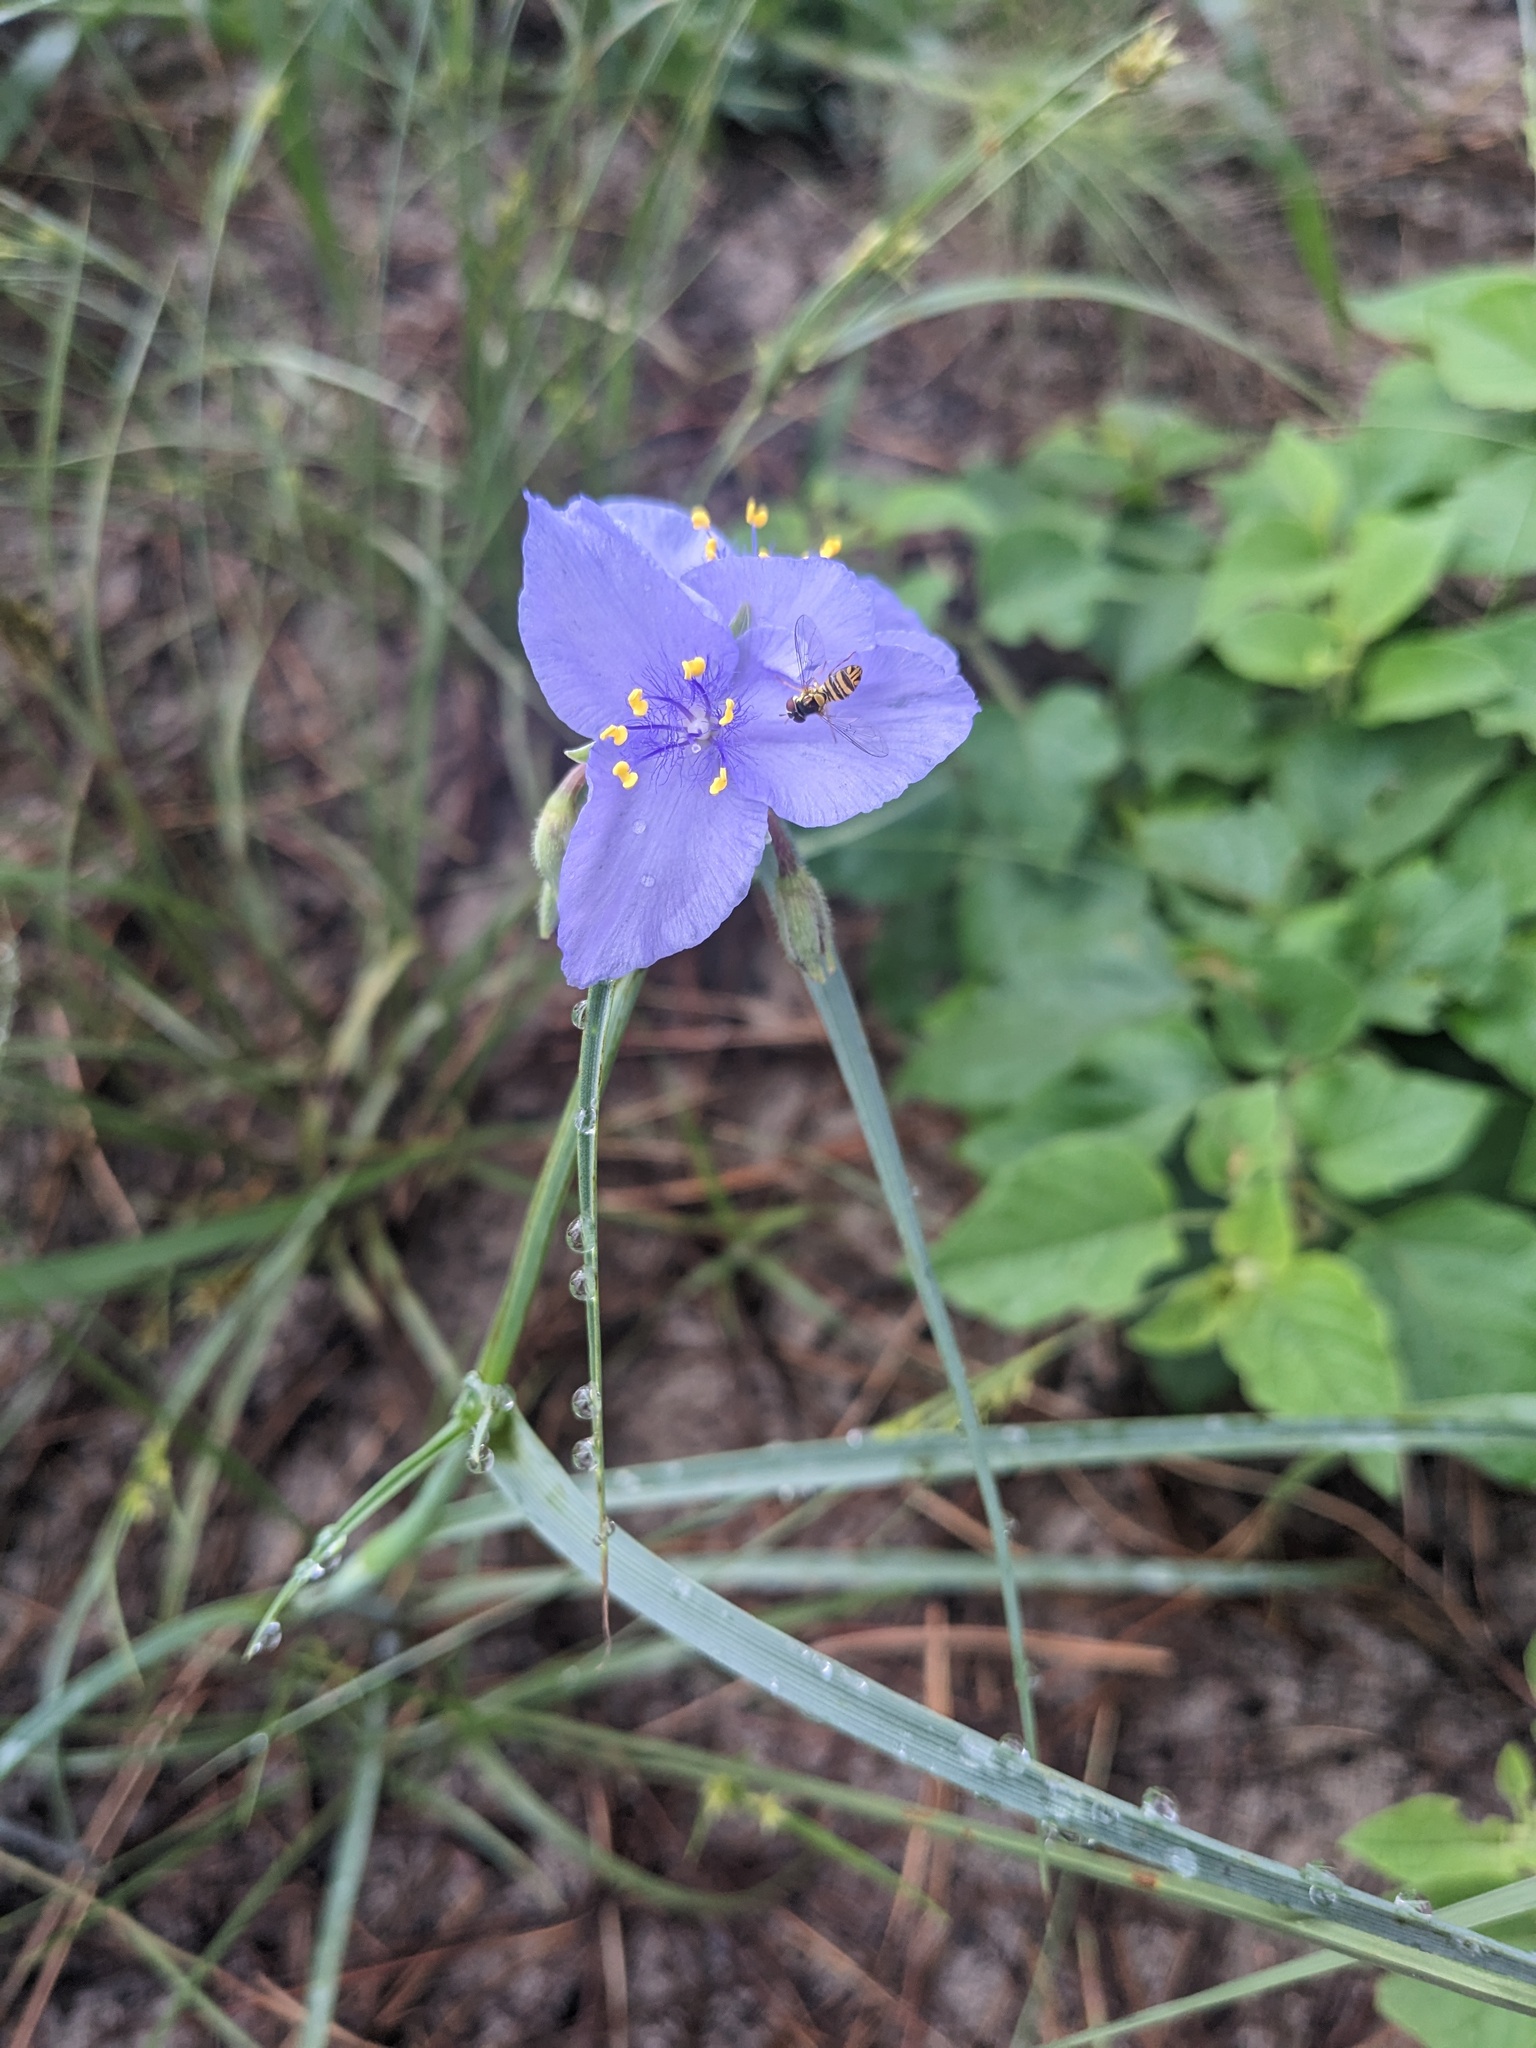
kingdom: Plantae
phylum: Tracheophyta
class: Liliopsida
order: Commelinales
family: Commelinaceae
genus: Tradescantia
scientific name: Tradescantia occidentalis
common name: Prairie spiderwort
